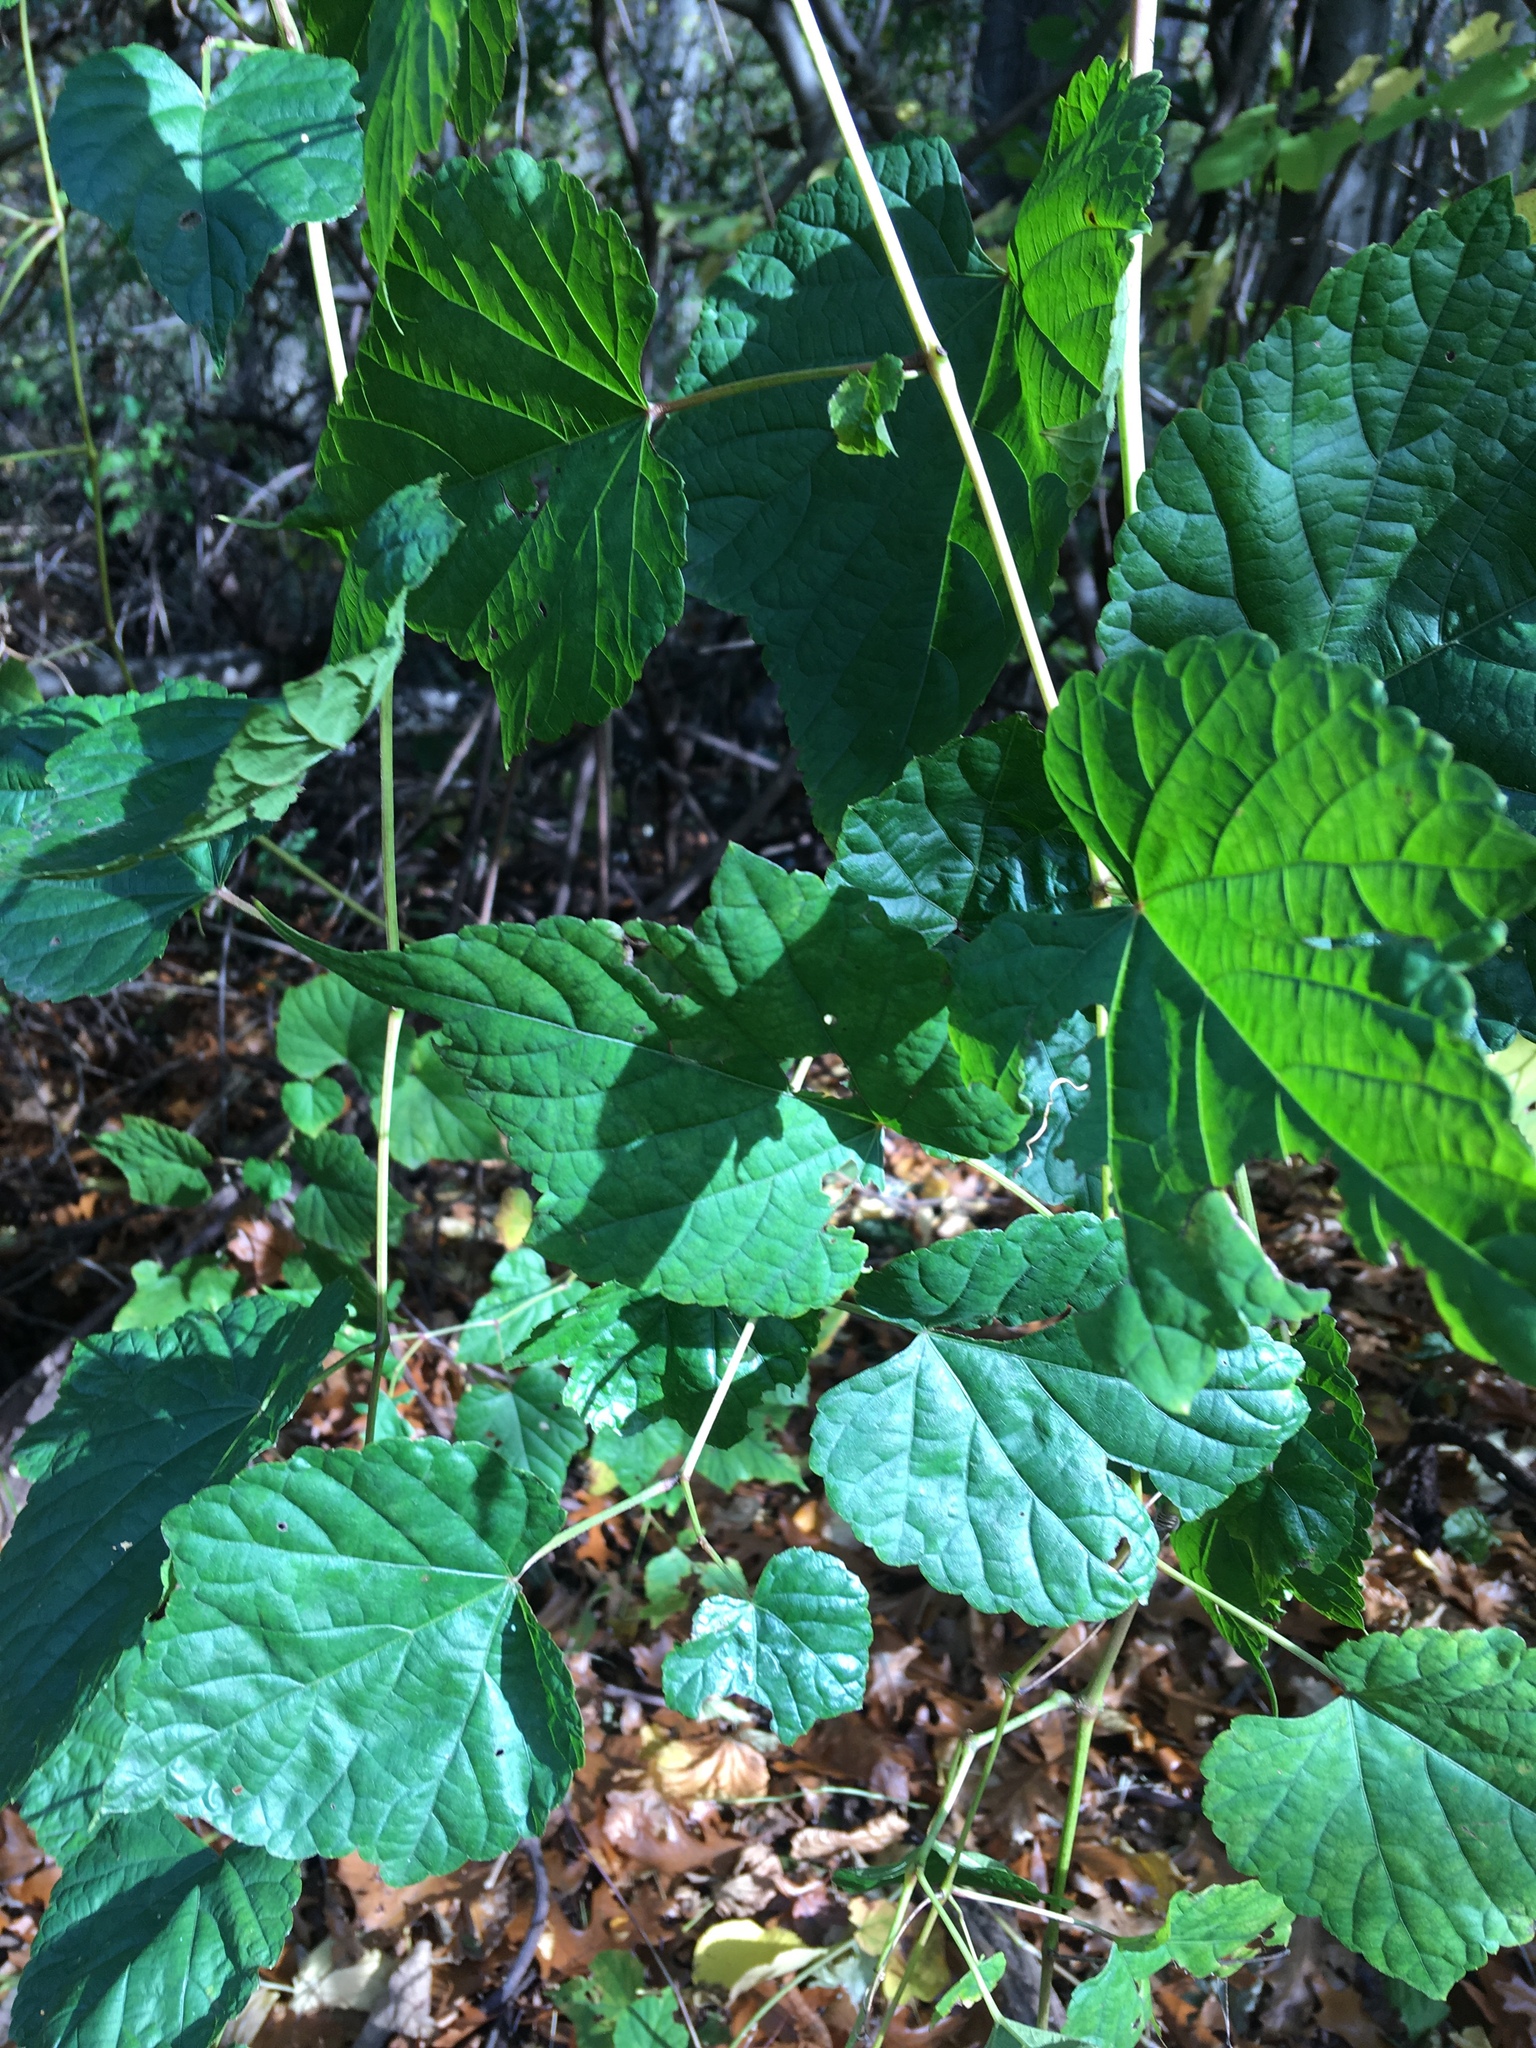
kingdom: Plantae
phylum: Tracheophyta
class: Magnoliopsida
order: Vitales
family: Vitaceae
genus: Ampelopsis
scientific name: Ampelopsis glandulosa
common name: Amur peppervine
